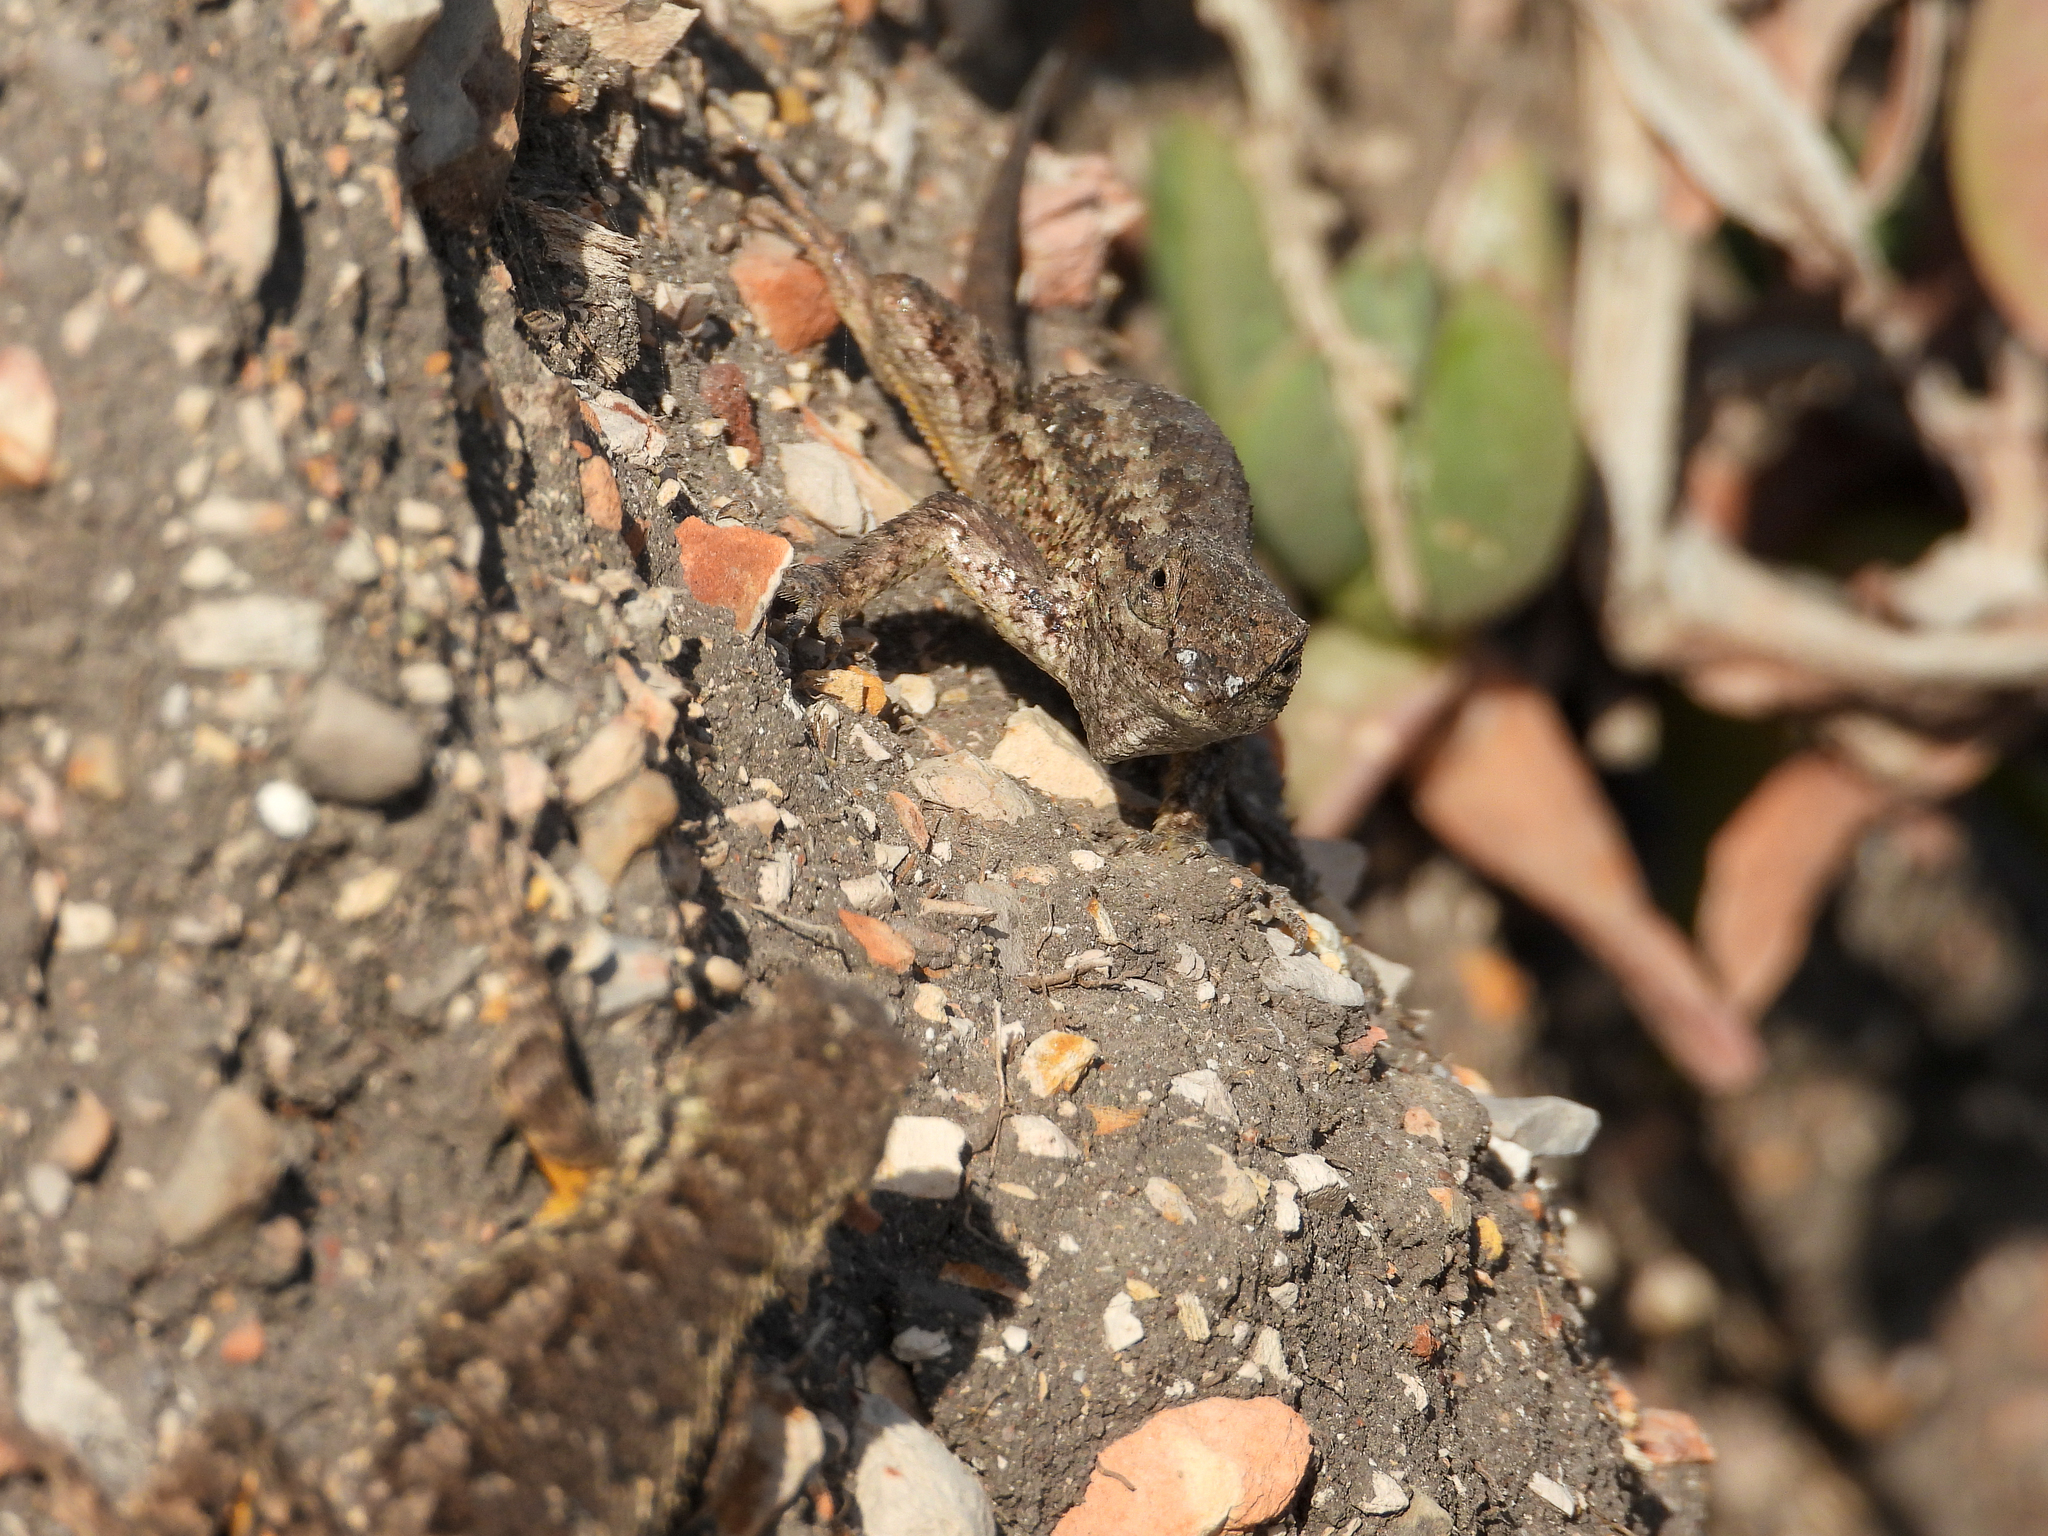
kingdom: Animalia
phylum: Chordata
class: Squamata
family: Phrynosomatidae
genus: Sceloporus
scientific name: Sceloporus occidentalis
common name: Western fence lizard
